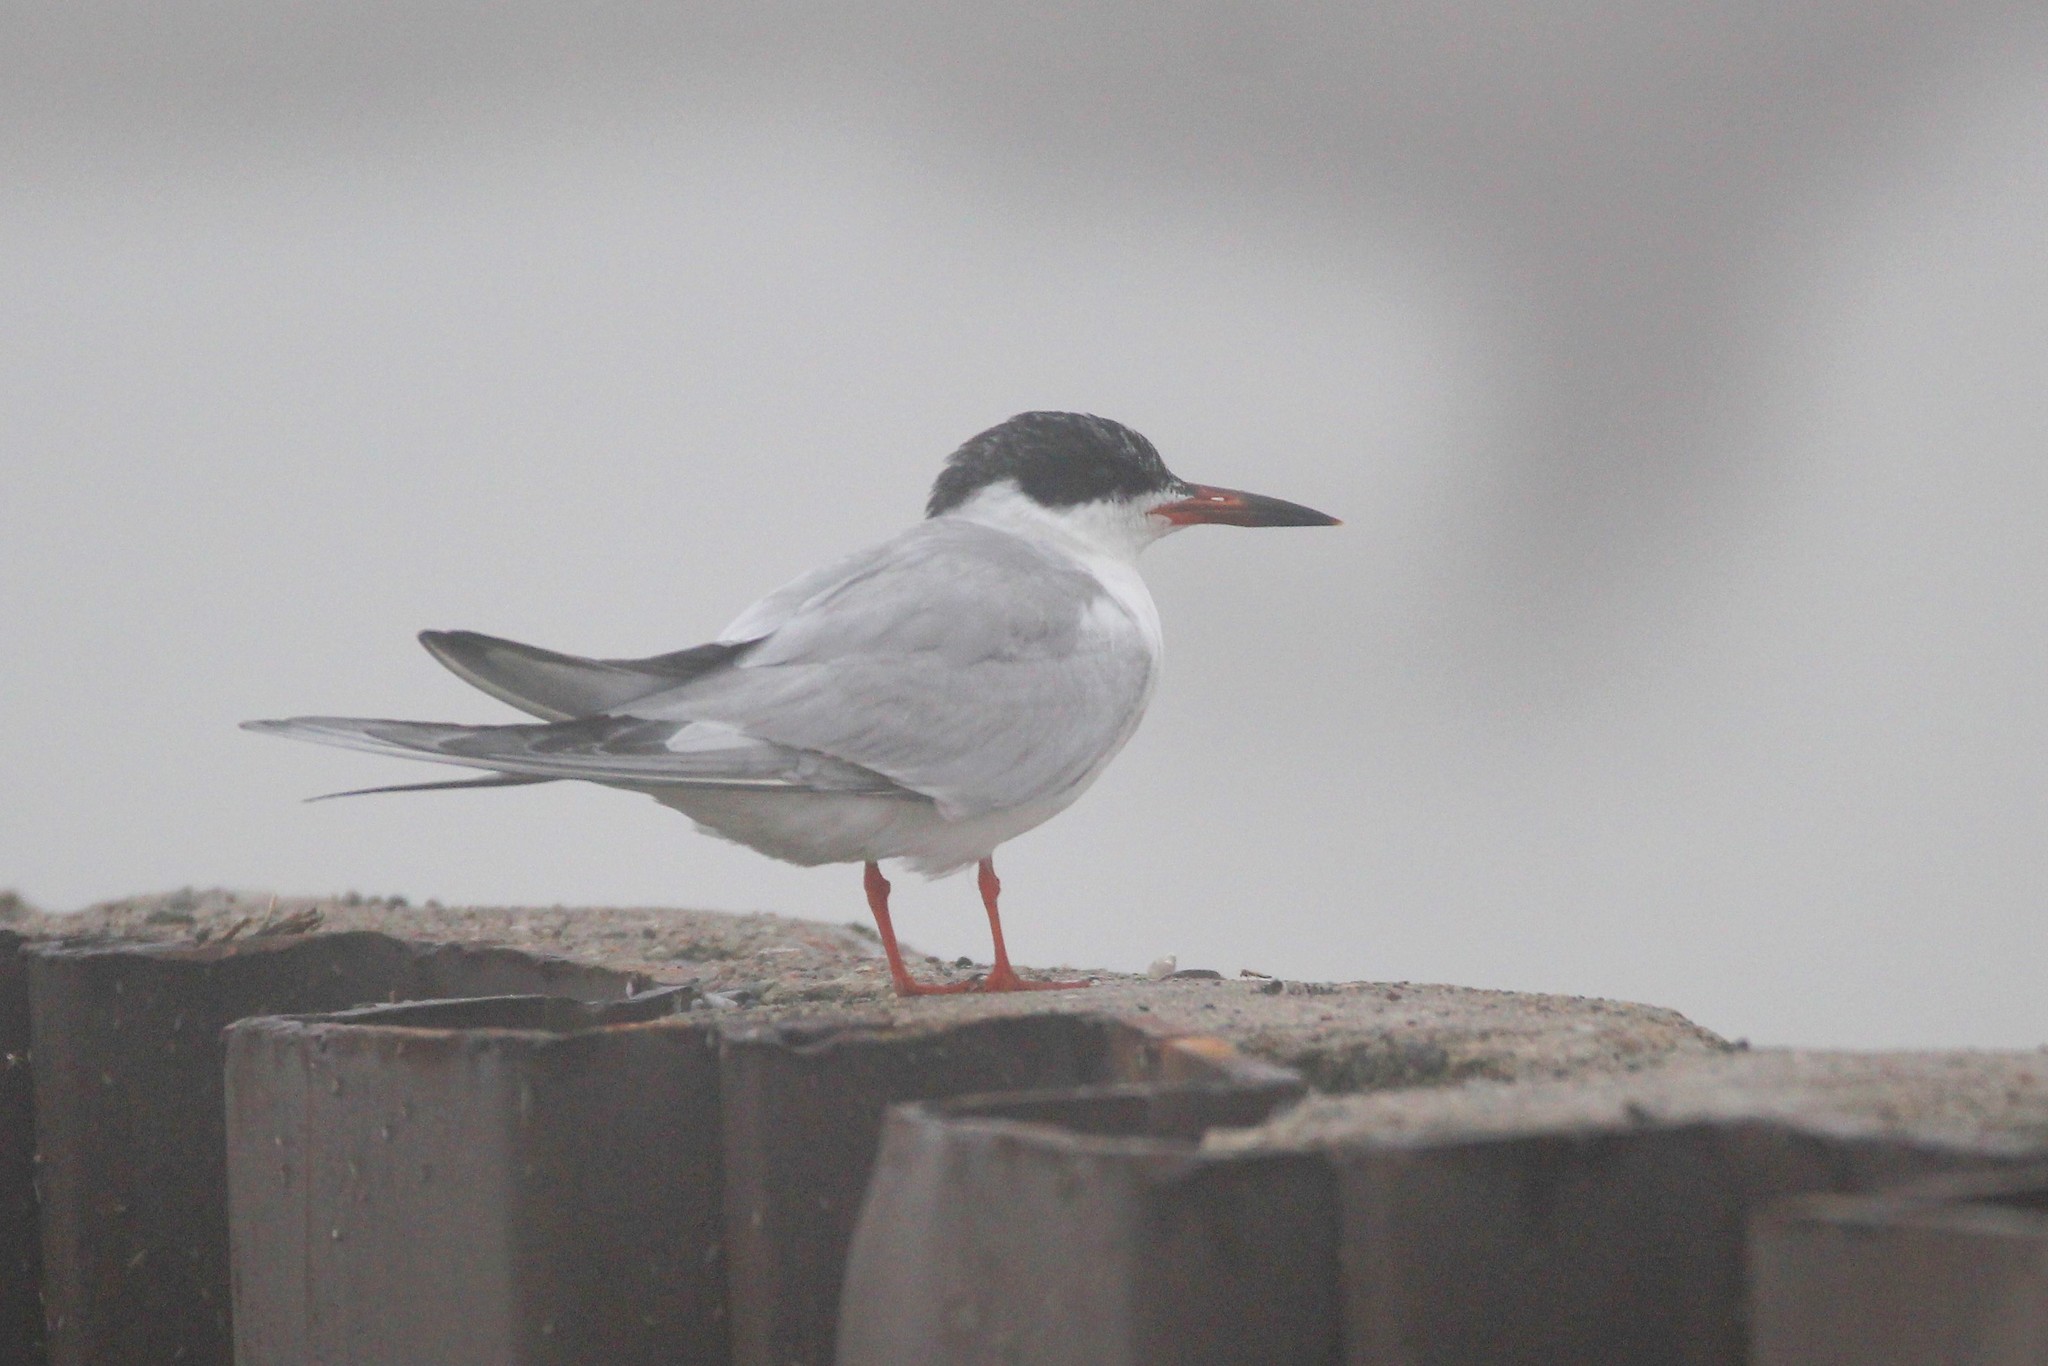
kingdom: Animalia
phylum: Chordata
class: Aves
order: Charadriiformes
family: Laridae
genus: Sterna
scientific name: Sterna hirundo
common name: Common tern
